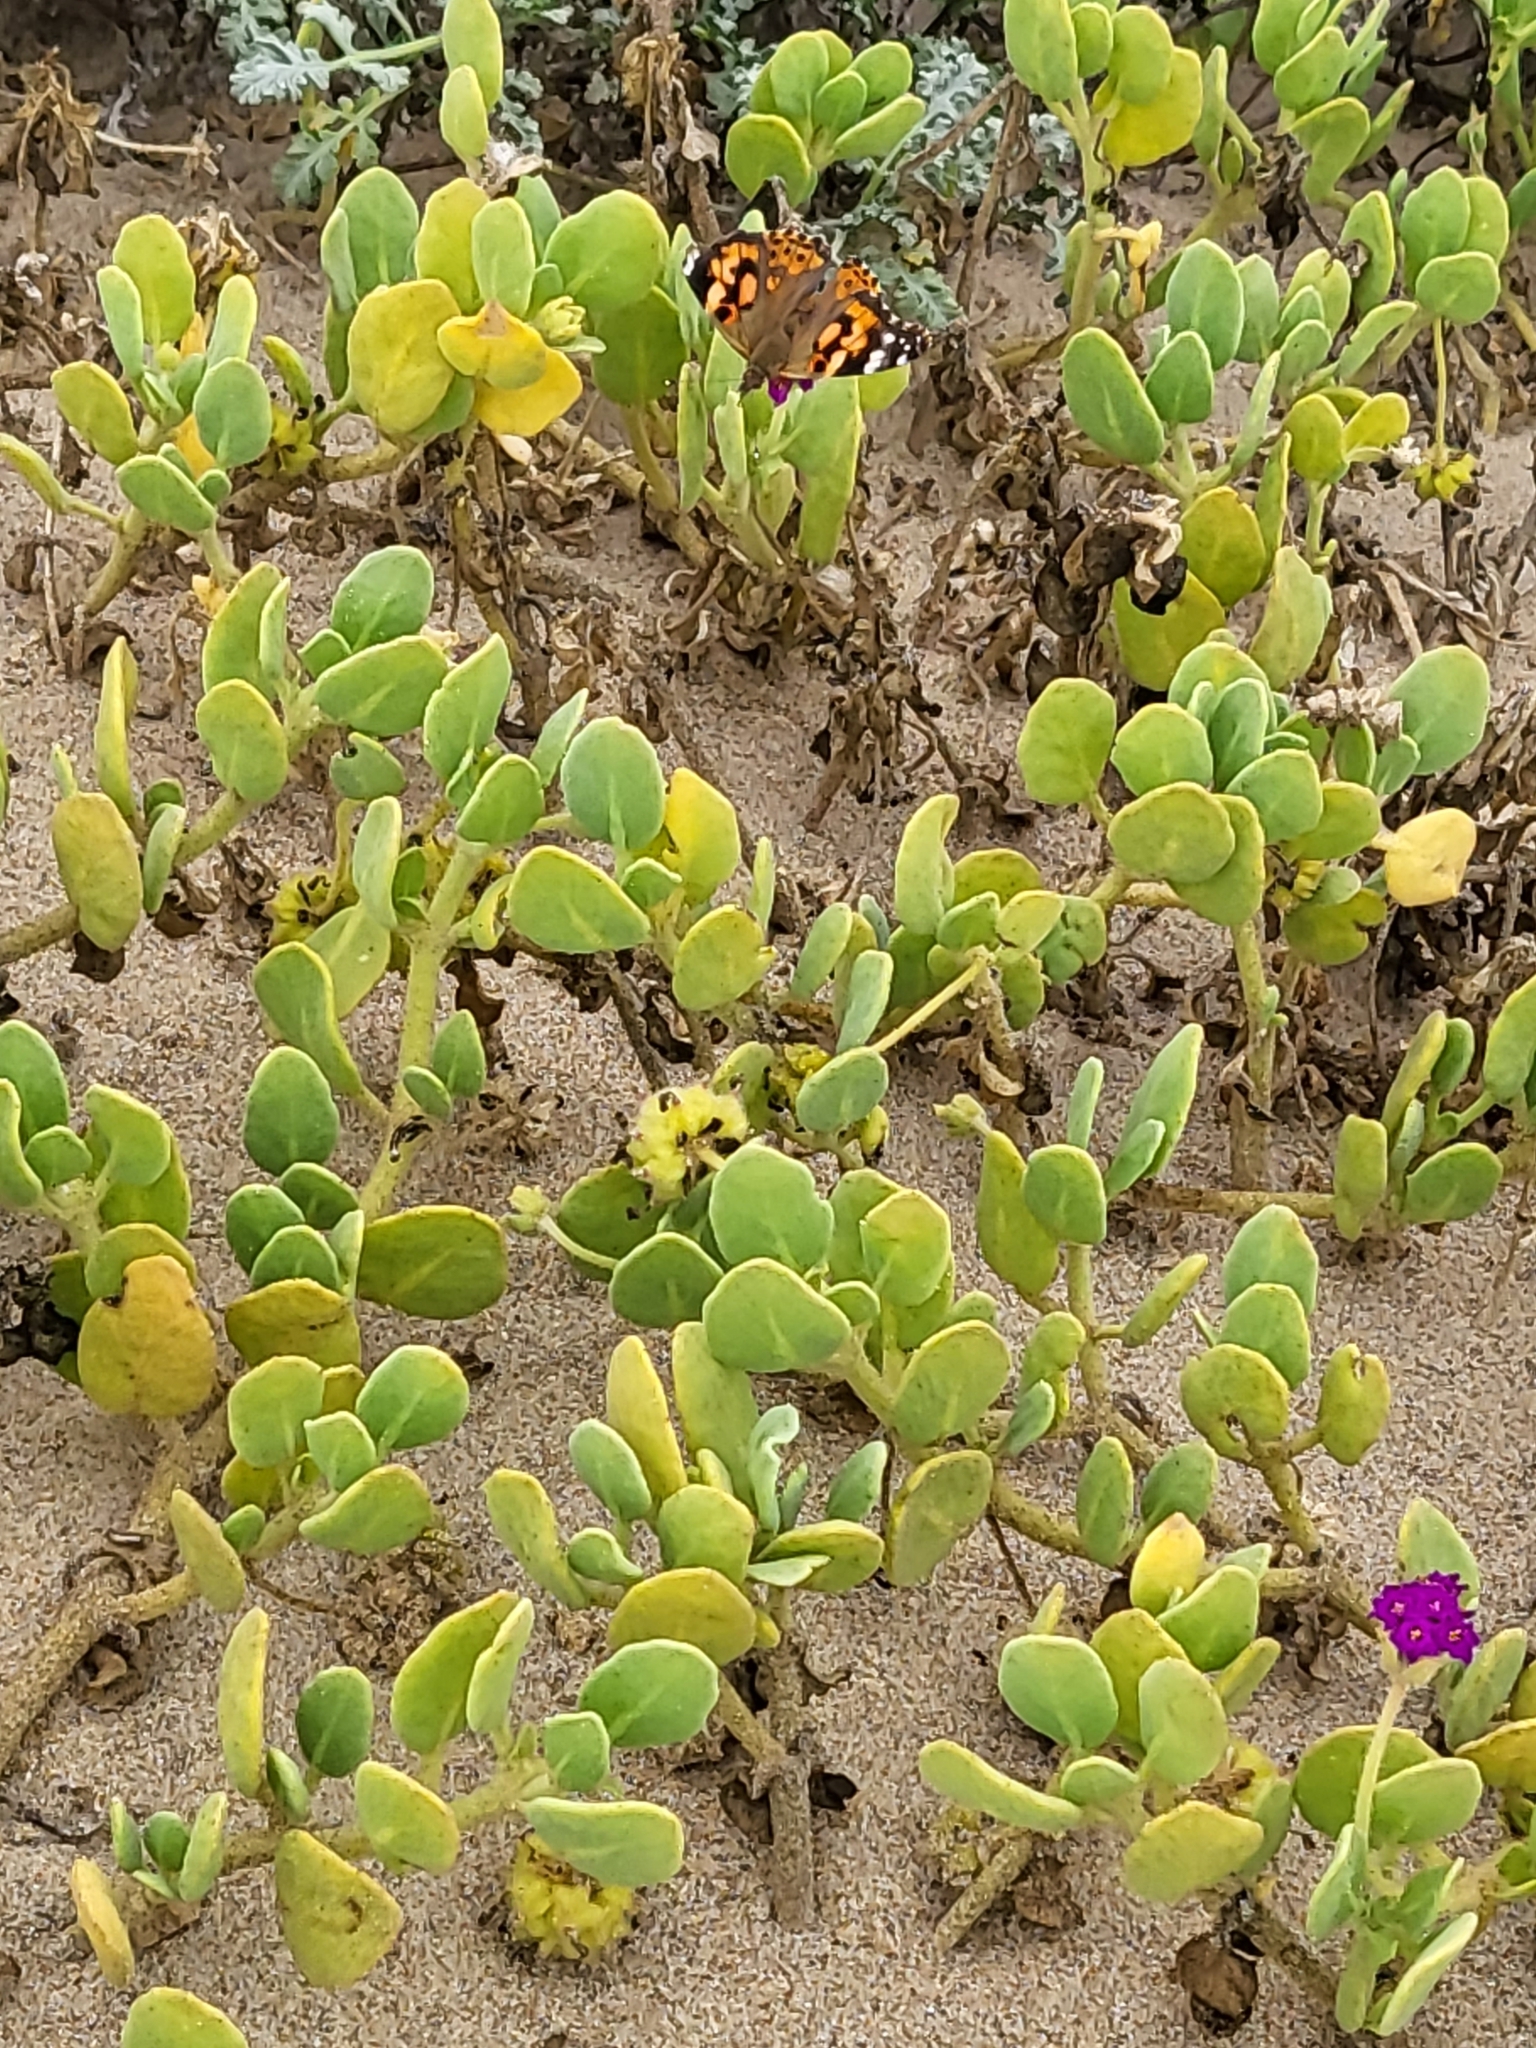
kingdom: Animalia
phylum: Arthropoda
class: Insecta
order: Lepidoptera
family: Nymphalidae
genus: Vanessa
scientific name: Vanessa cardui
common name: Painted lady
